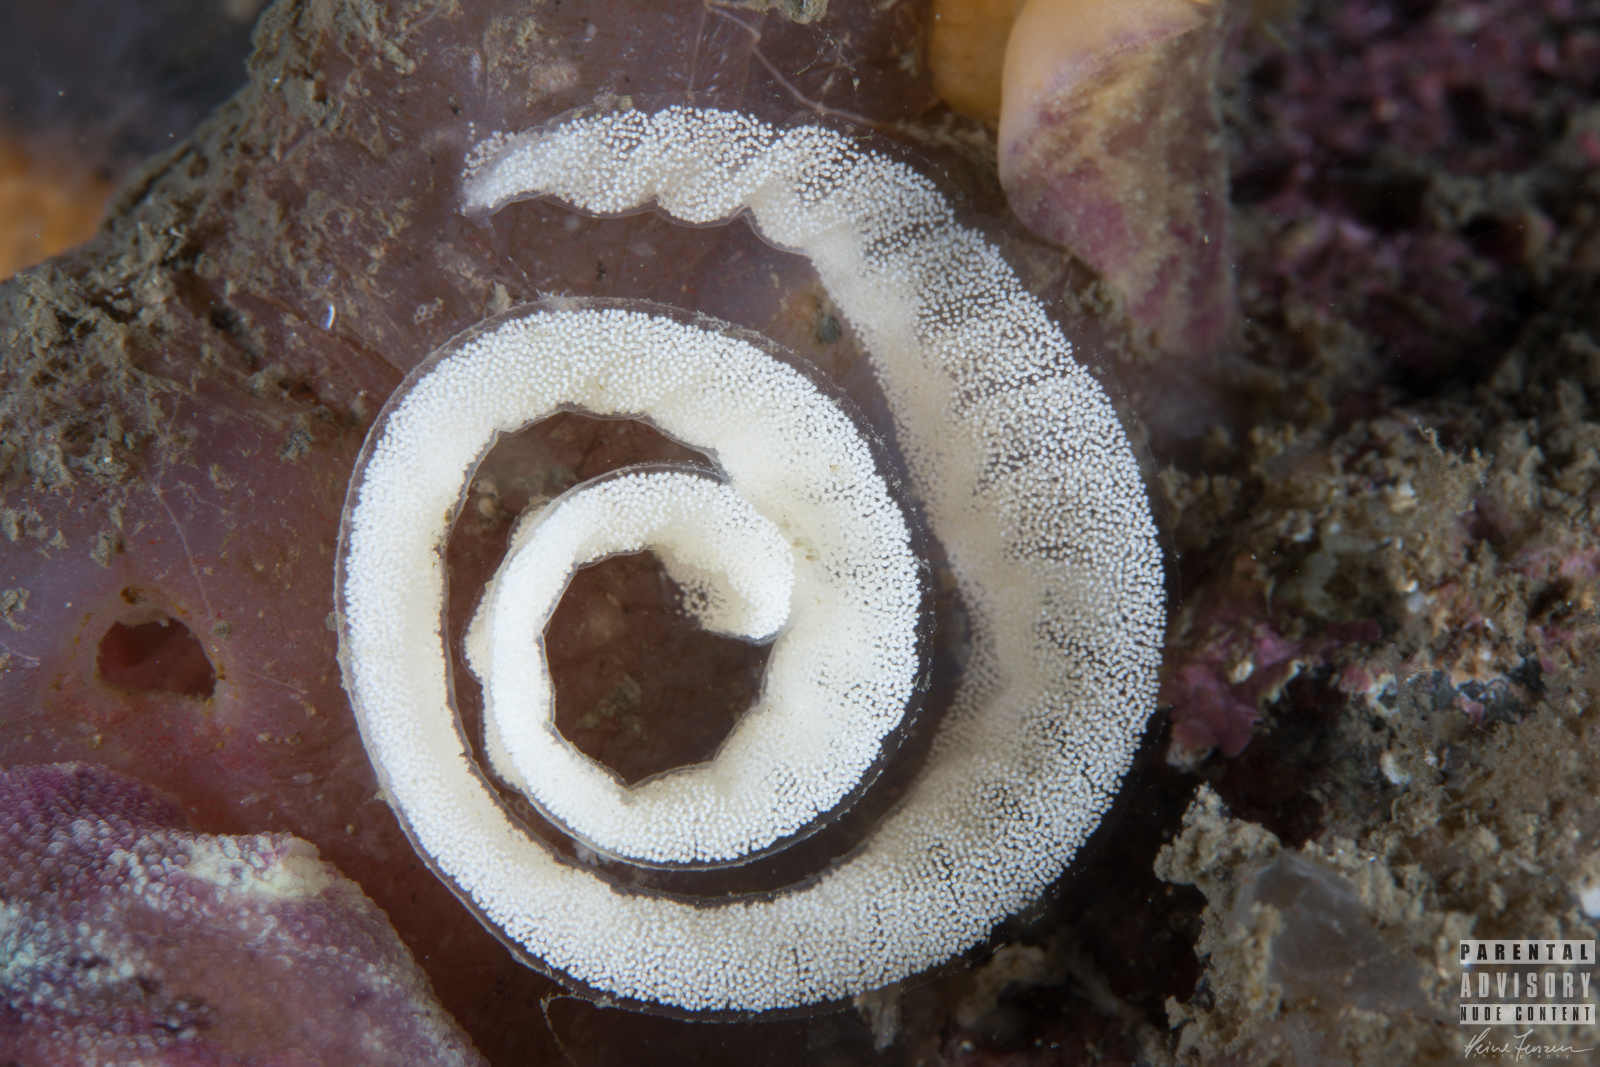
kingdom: Animalia
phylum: Mollusca
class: Gastropoda
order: Nudibranchia
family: Dorididae
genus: Doris
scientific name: Doris pseudoargus
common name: Sea lemon
